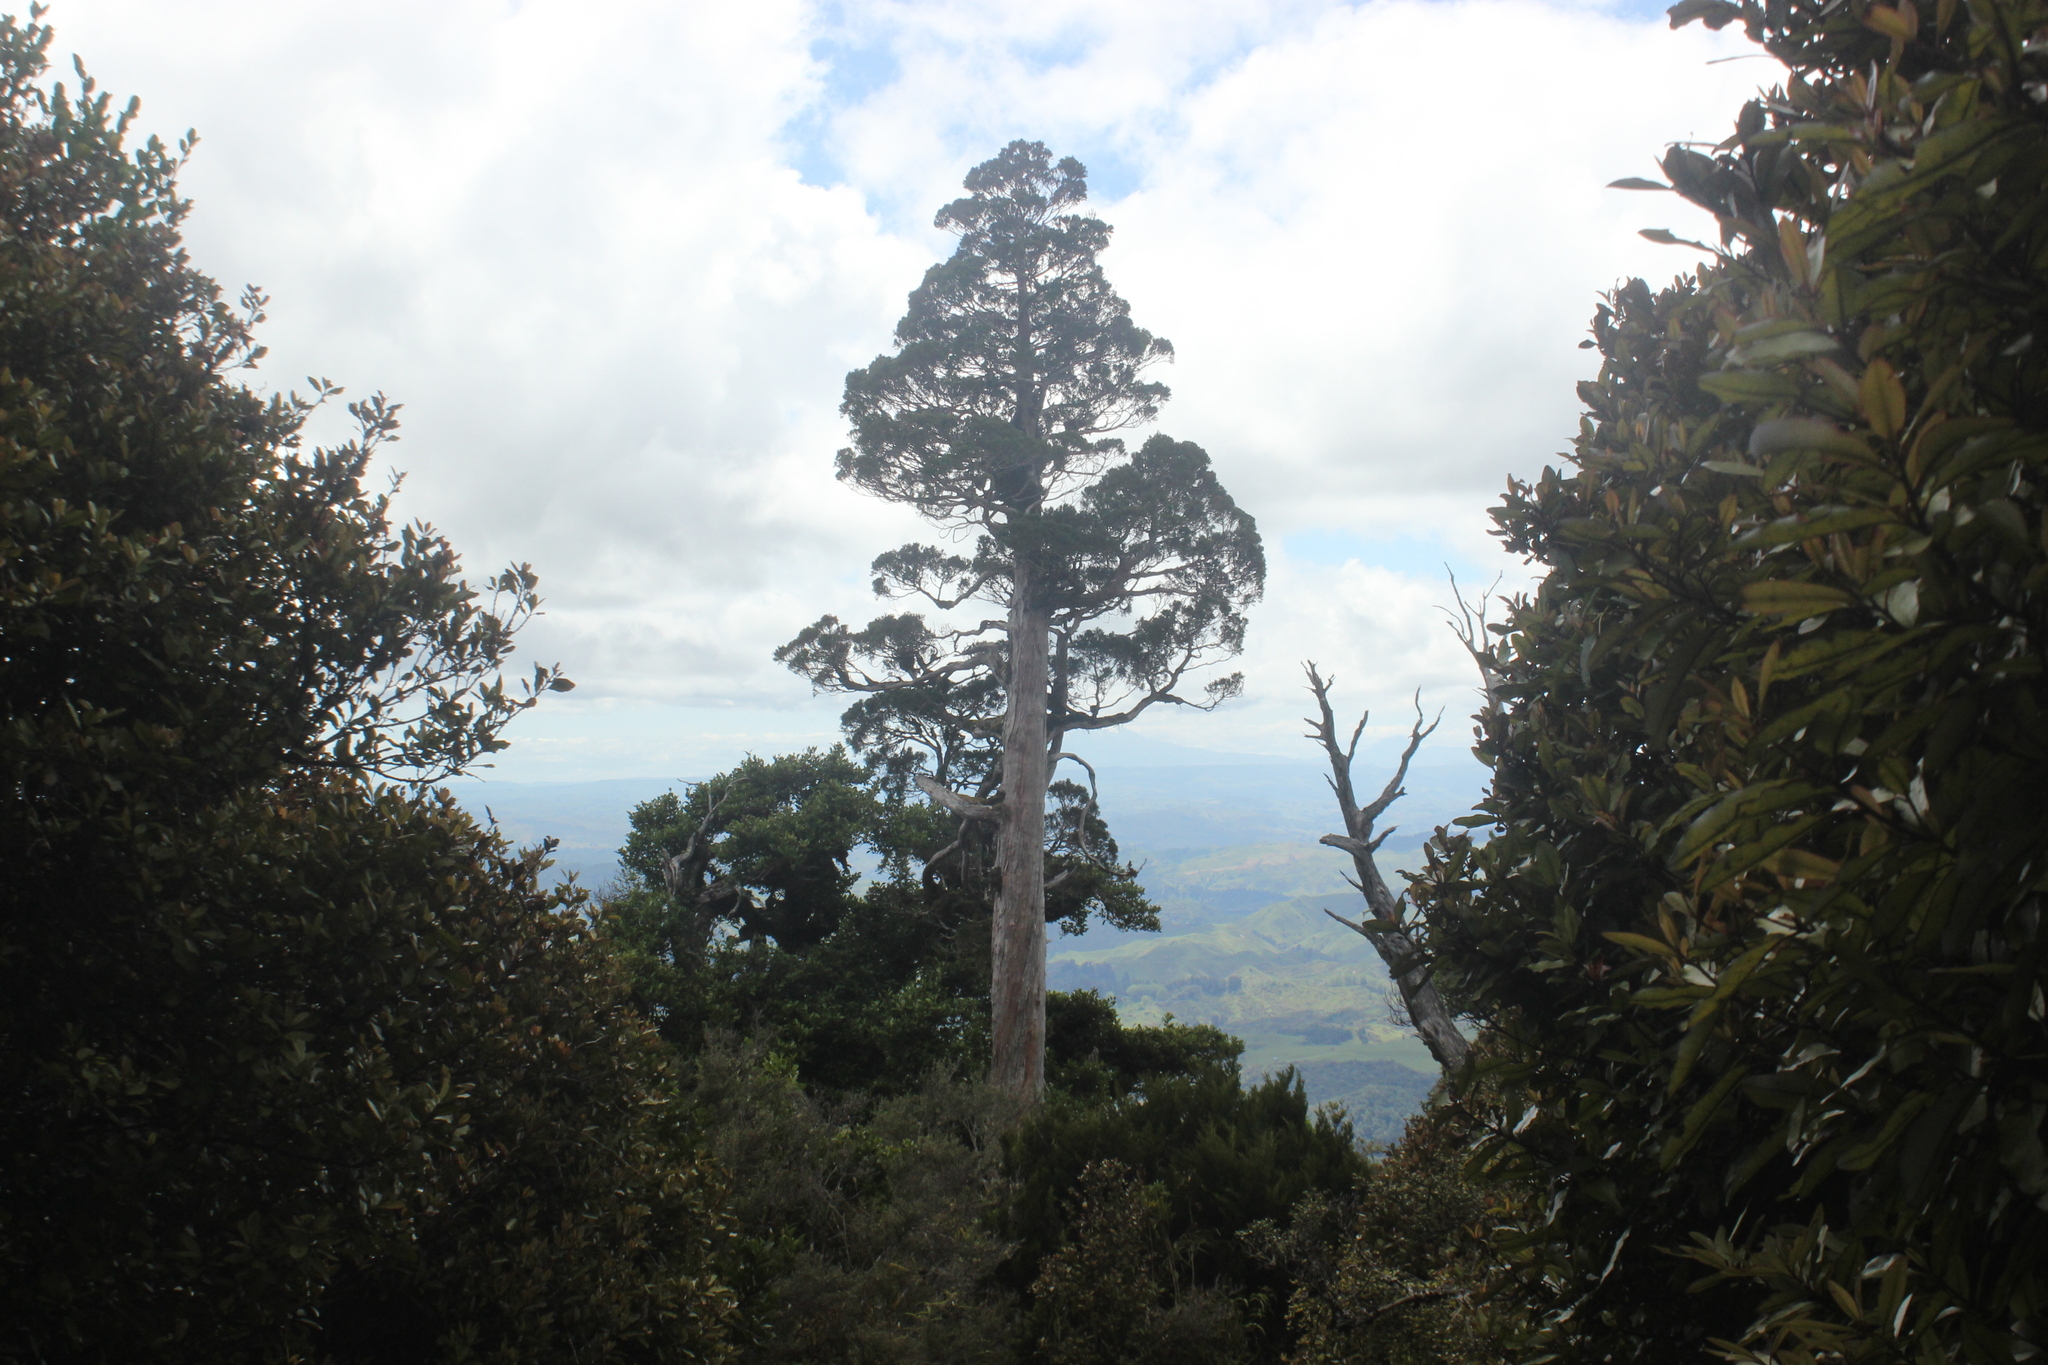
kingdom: Plantae
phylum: Tracheophyta
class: Pinopsida
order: Pinales
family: Cupressaceae
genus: Libocedrus
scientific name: Libocedrus bidwillii
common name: Cedar
